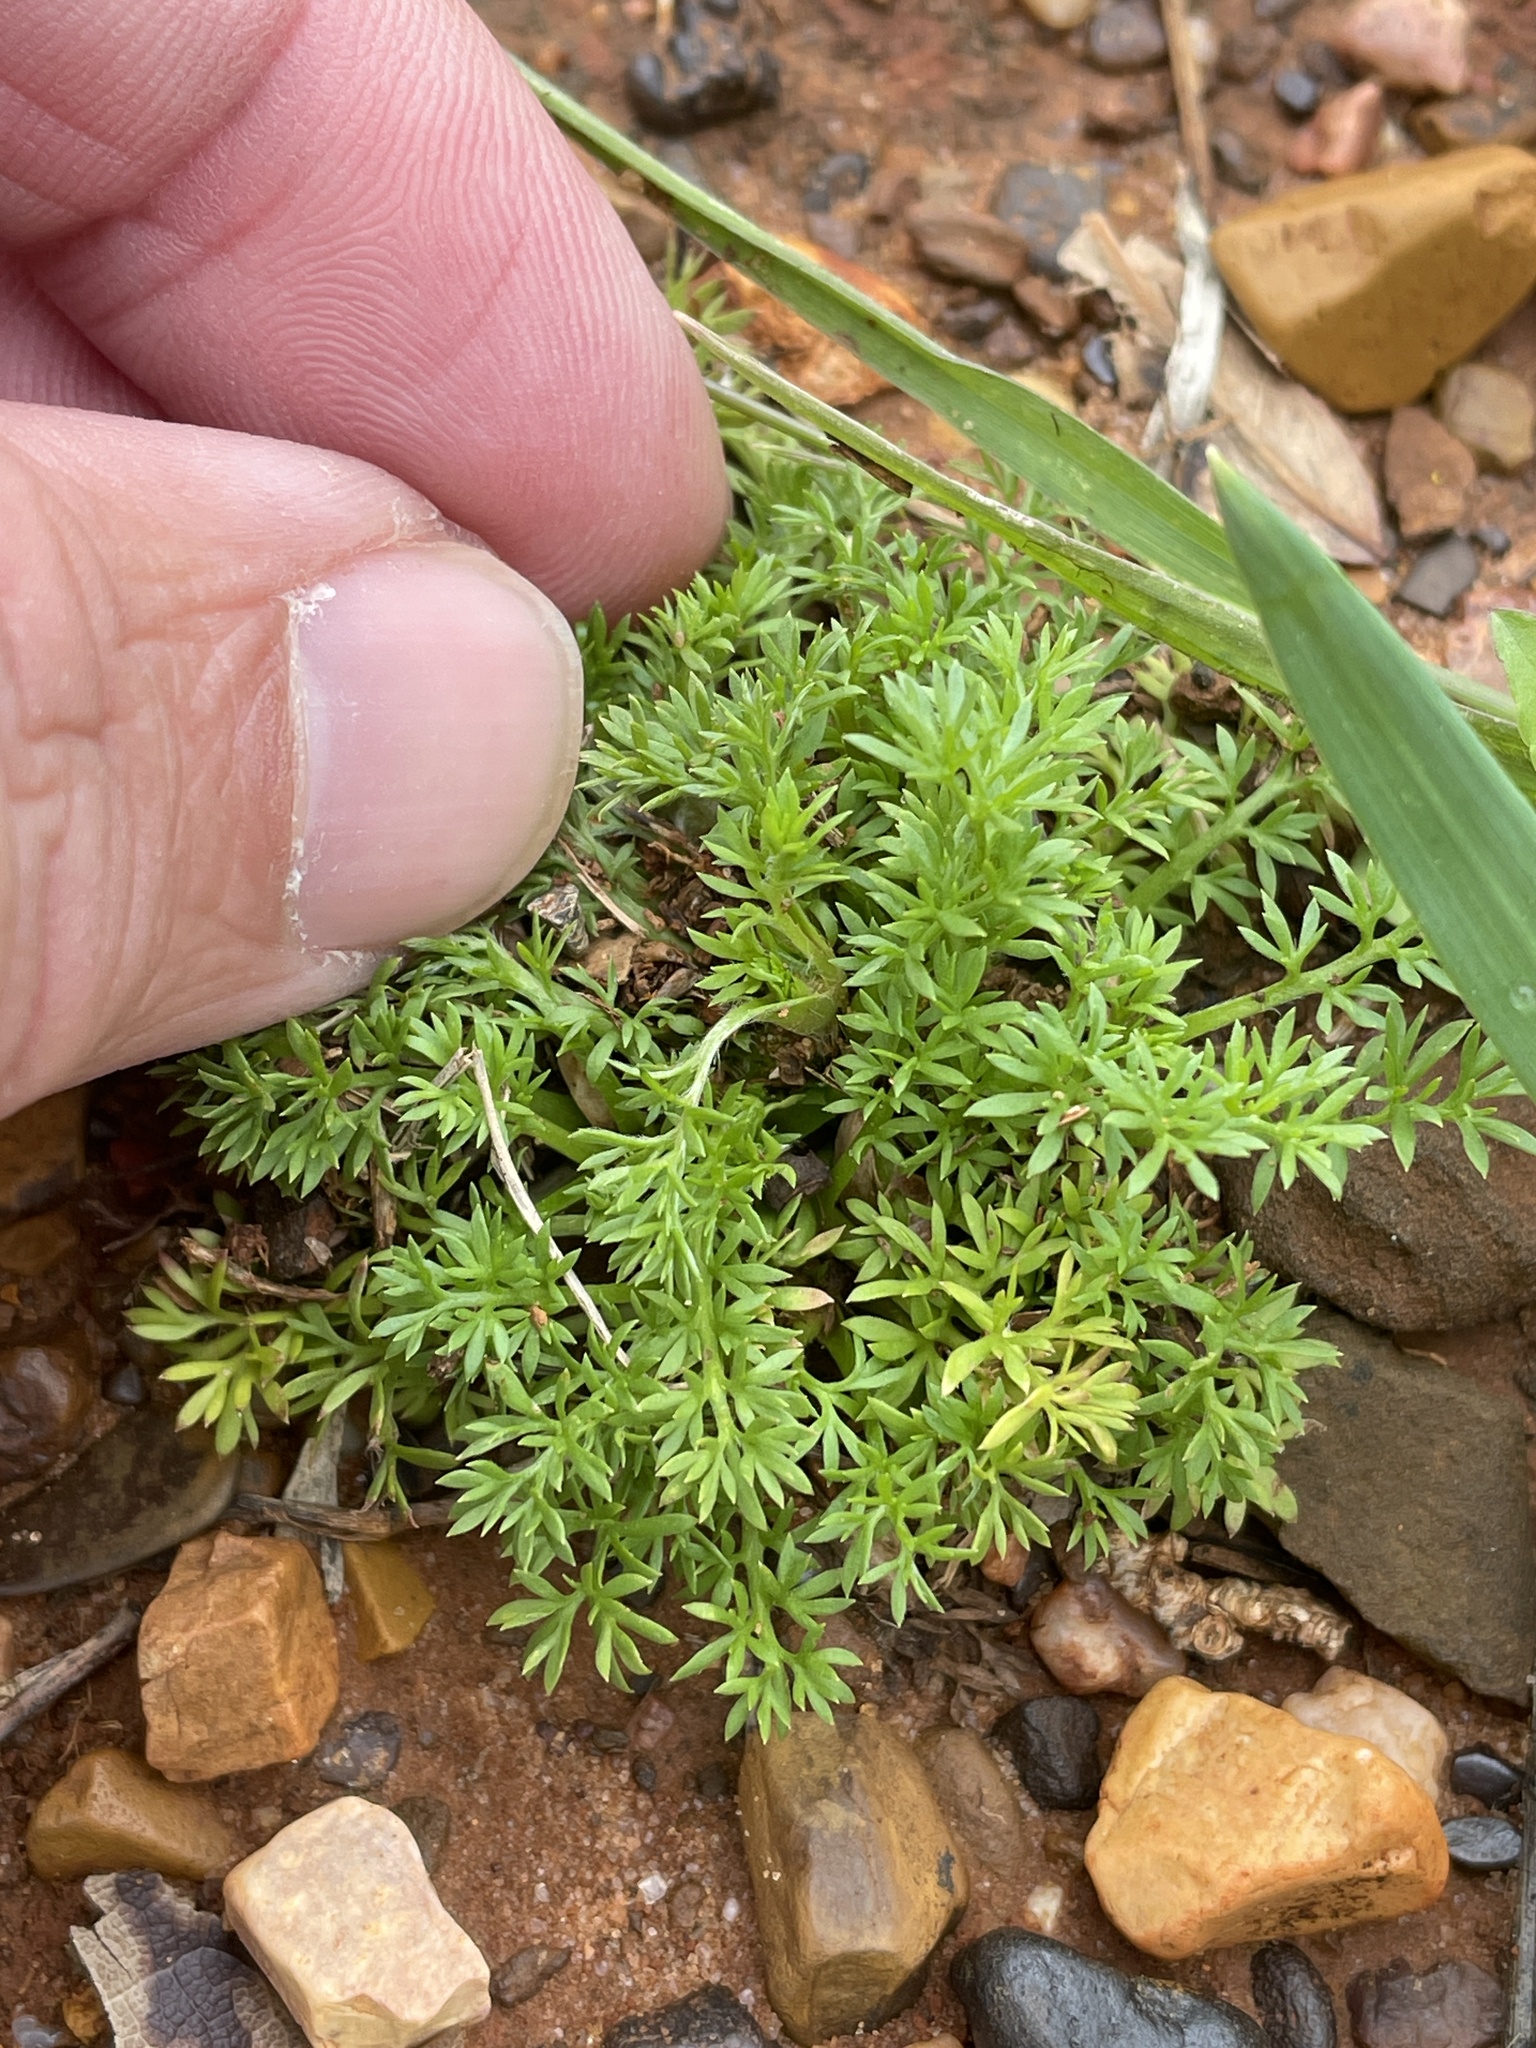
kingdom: Plantae
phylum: Tracheophyta
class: Magnoliopsida
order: Asterales
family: Asteraceae
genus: Soliva
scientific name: Soliva sessilis
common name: Field burrweed
